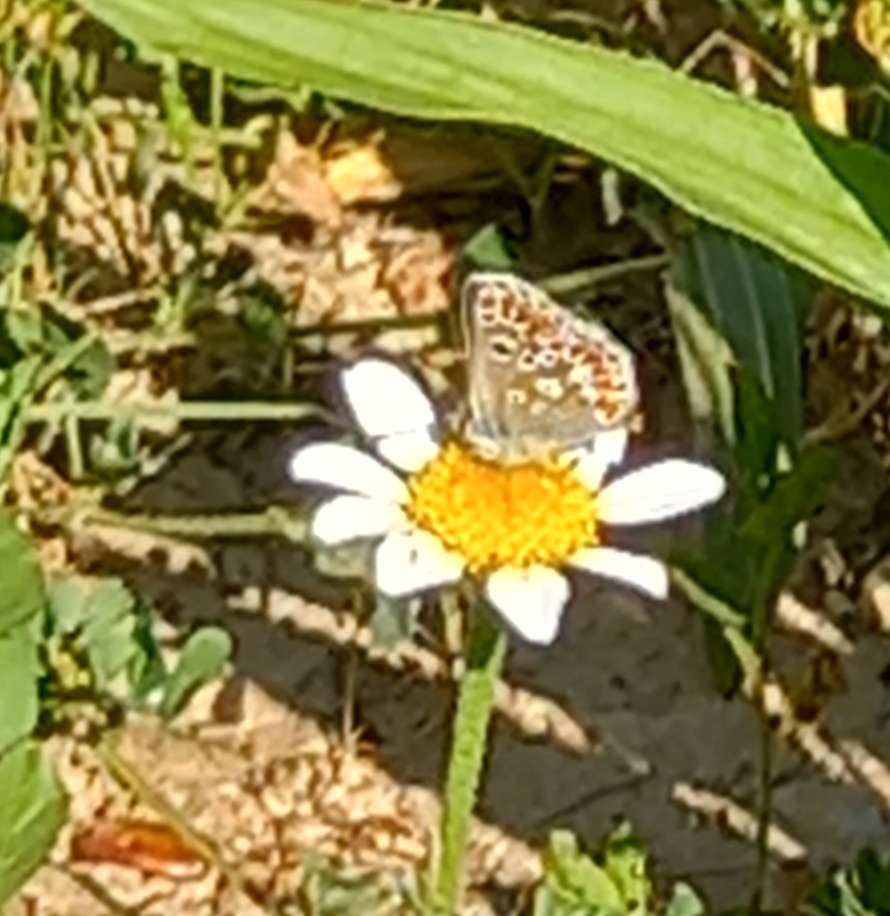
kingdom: Animalia
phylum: Arthropoda
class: Insecta
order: Lepidoptera
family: Lycaenidae
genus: Aricia
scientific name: Aricia cramera
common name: Eschscholtz´s brown  argus
